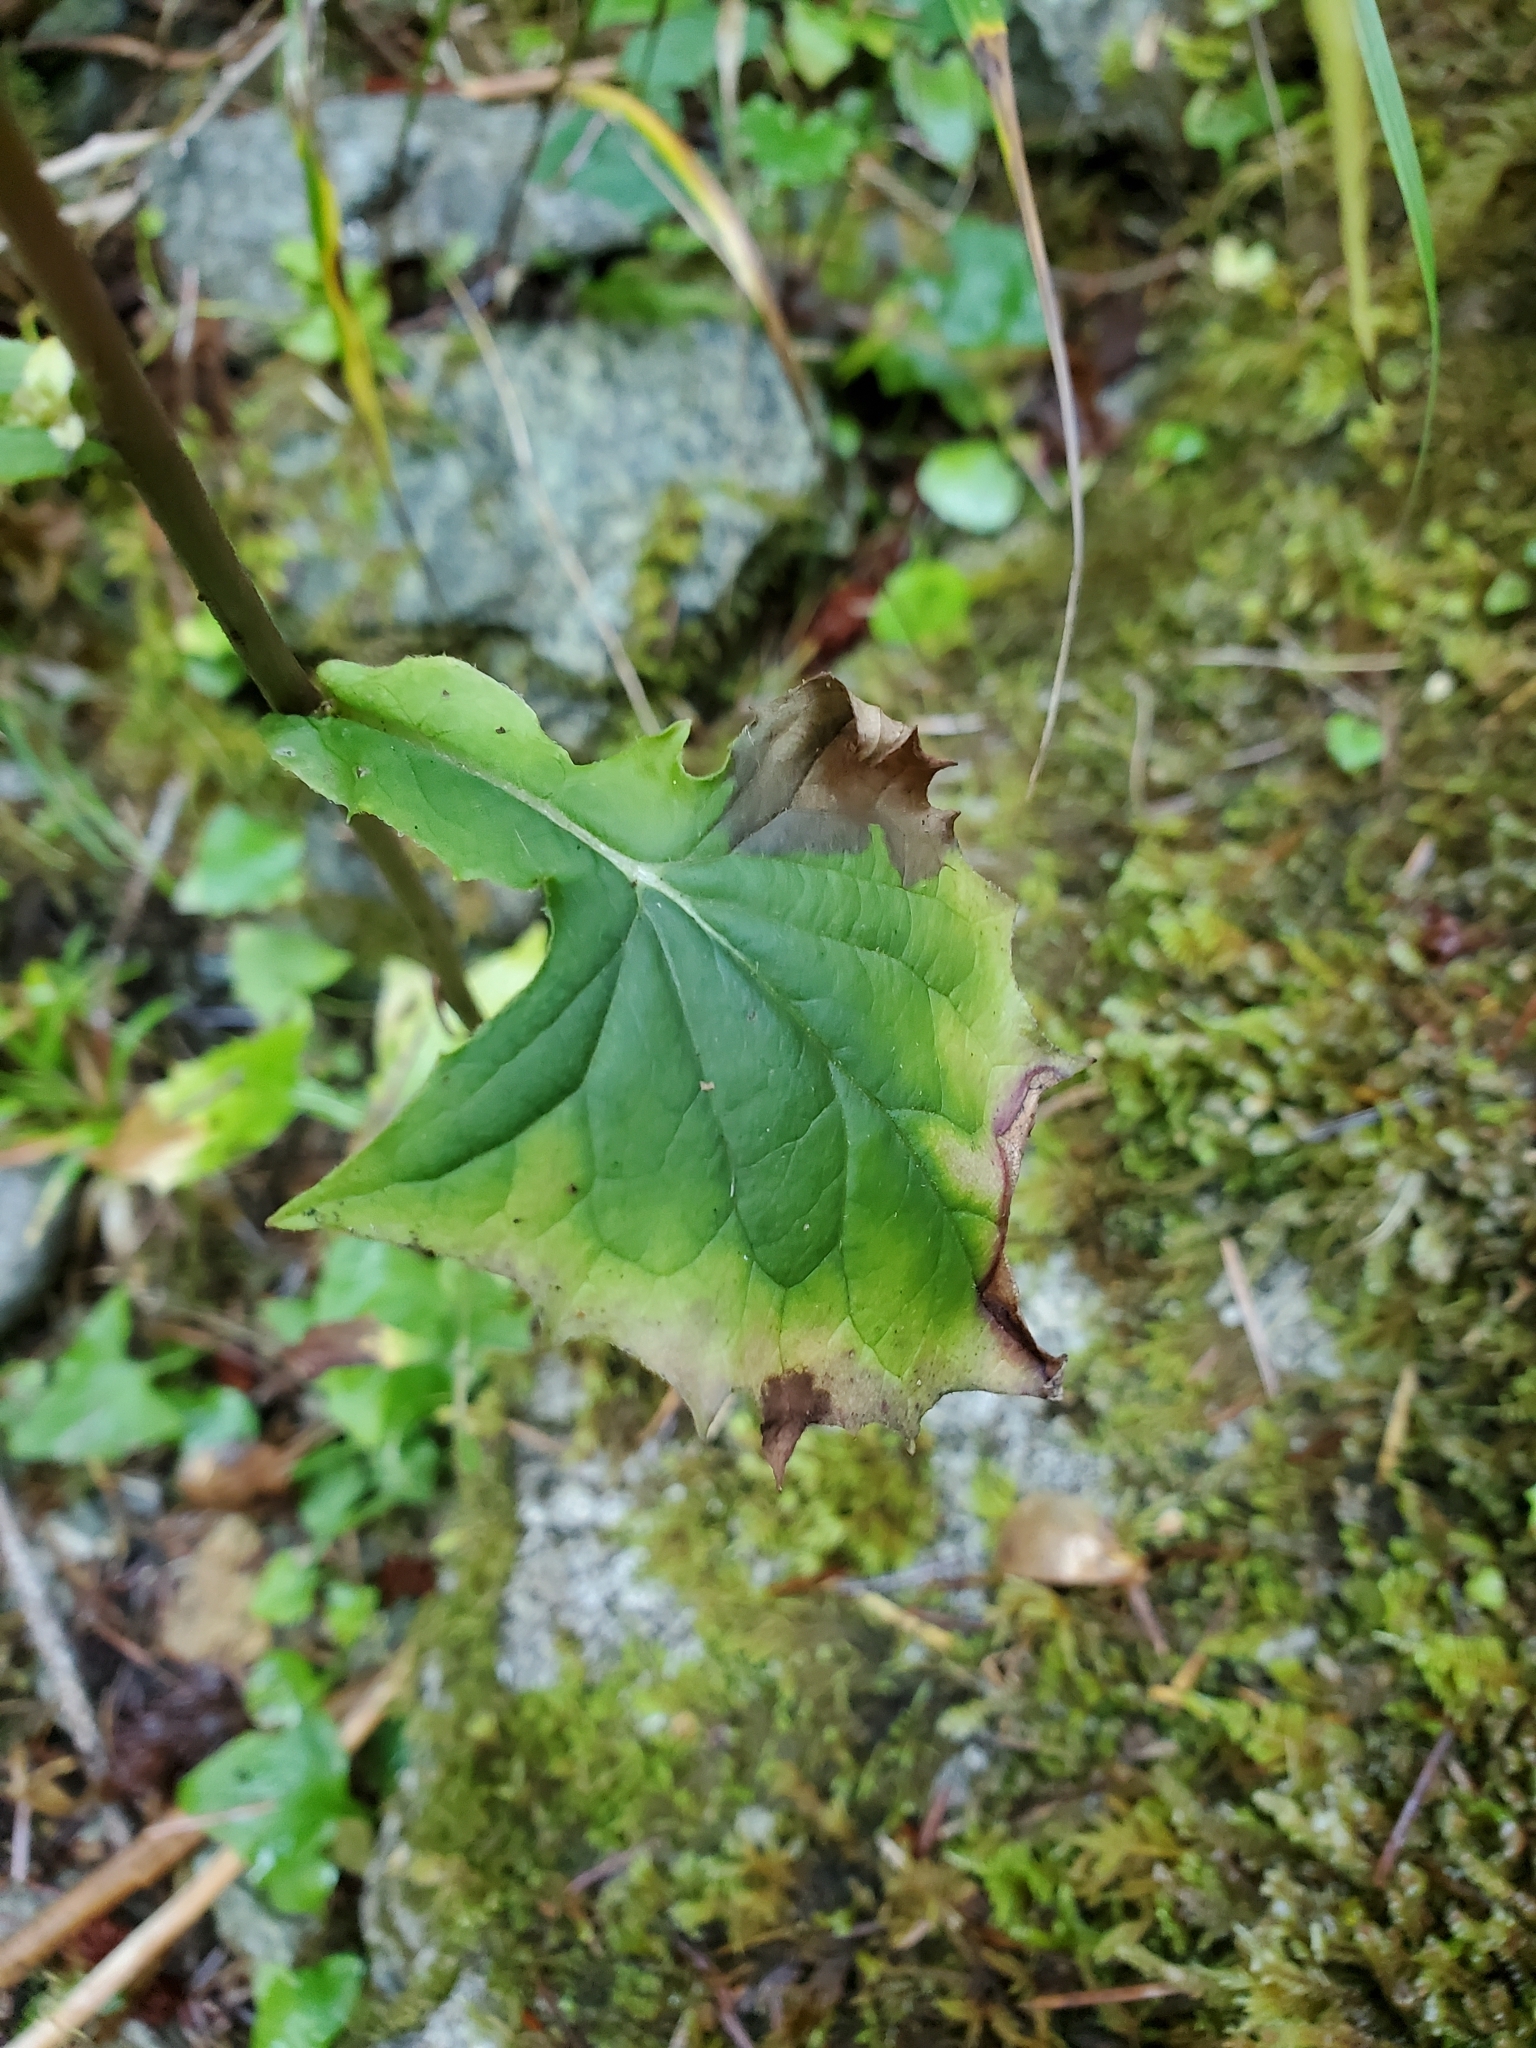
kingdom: Plantae
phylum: Tracheophyta
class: Magnoliopsida
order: Asterales
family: Asteraceae
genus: Nabalus
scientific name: Nabalus hastatus
